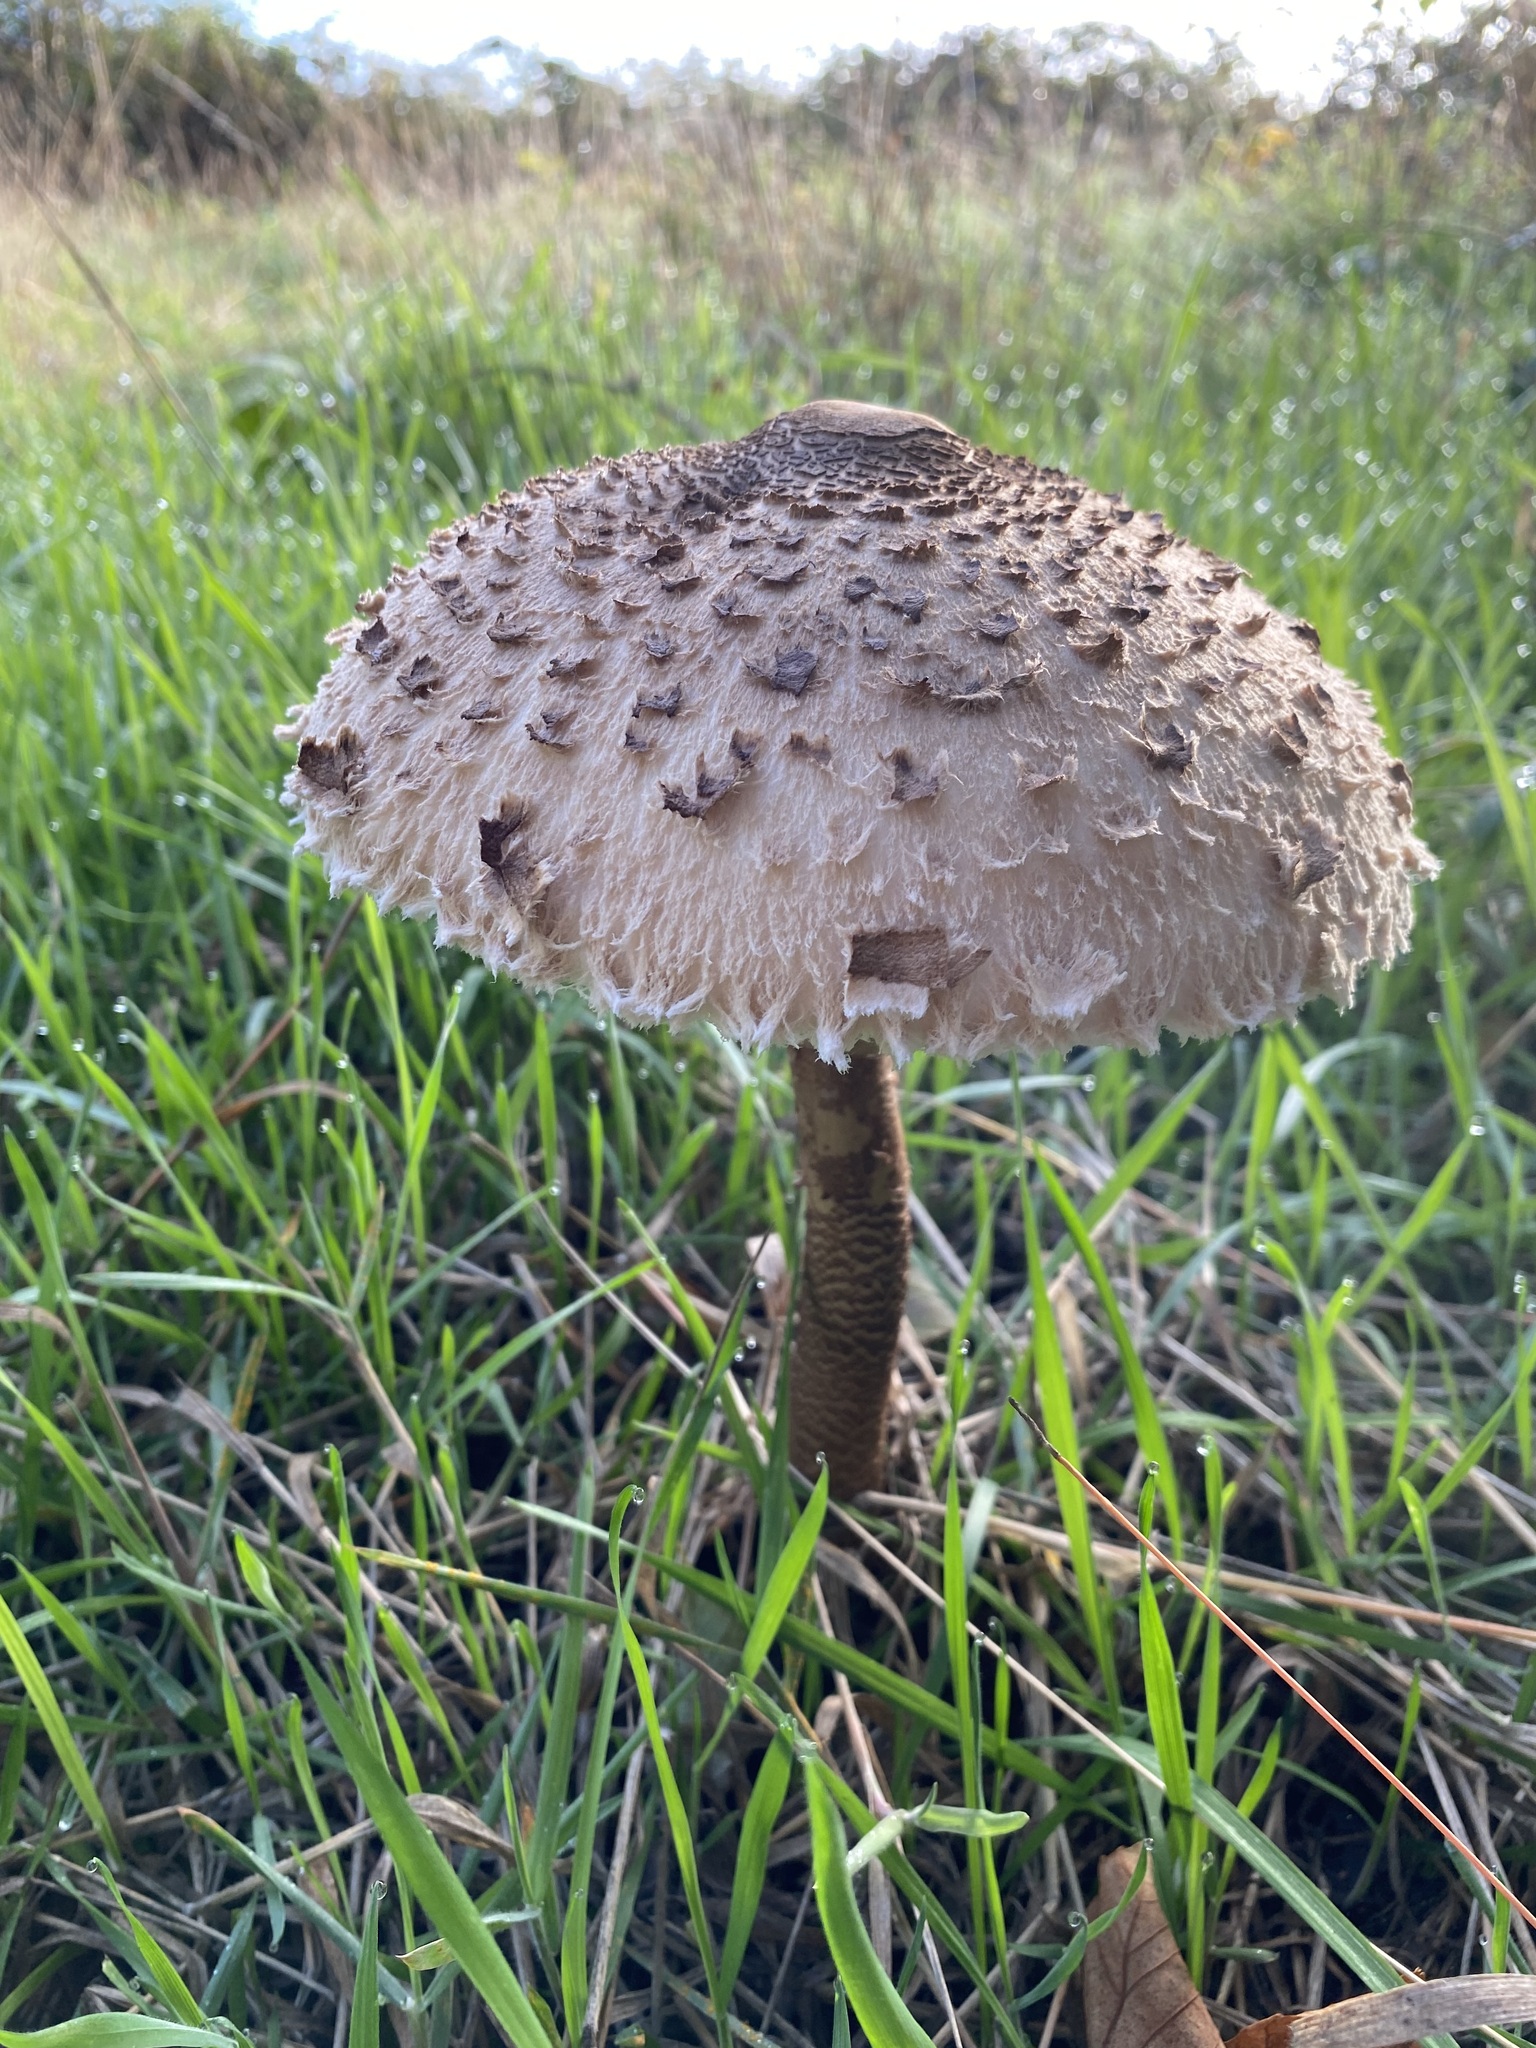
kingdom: Fungi
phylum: Basidiomycota
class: Agaricomycetes
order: Agaricales
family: Agaricaceae
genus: Macrolepiota
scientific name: Macrolepiota procera
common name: Parasol
